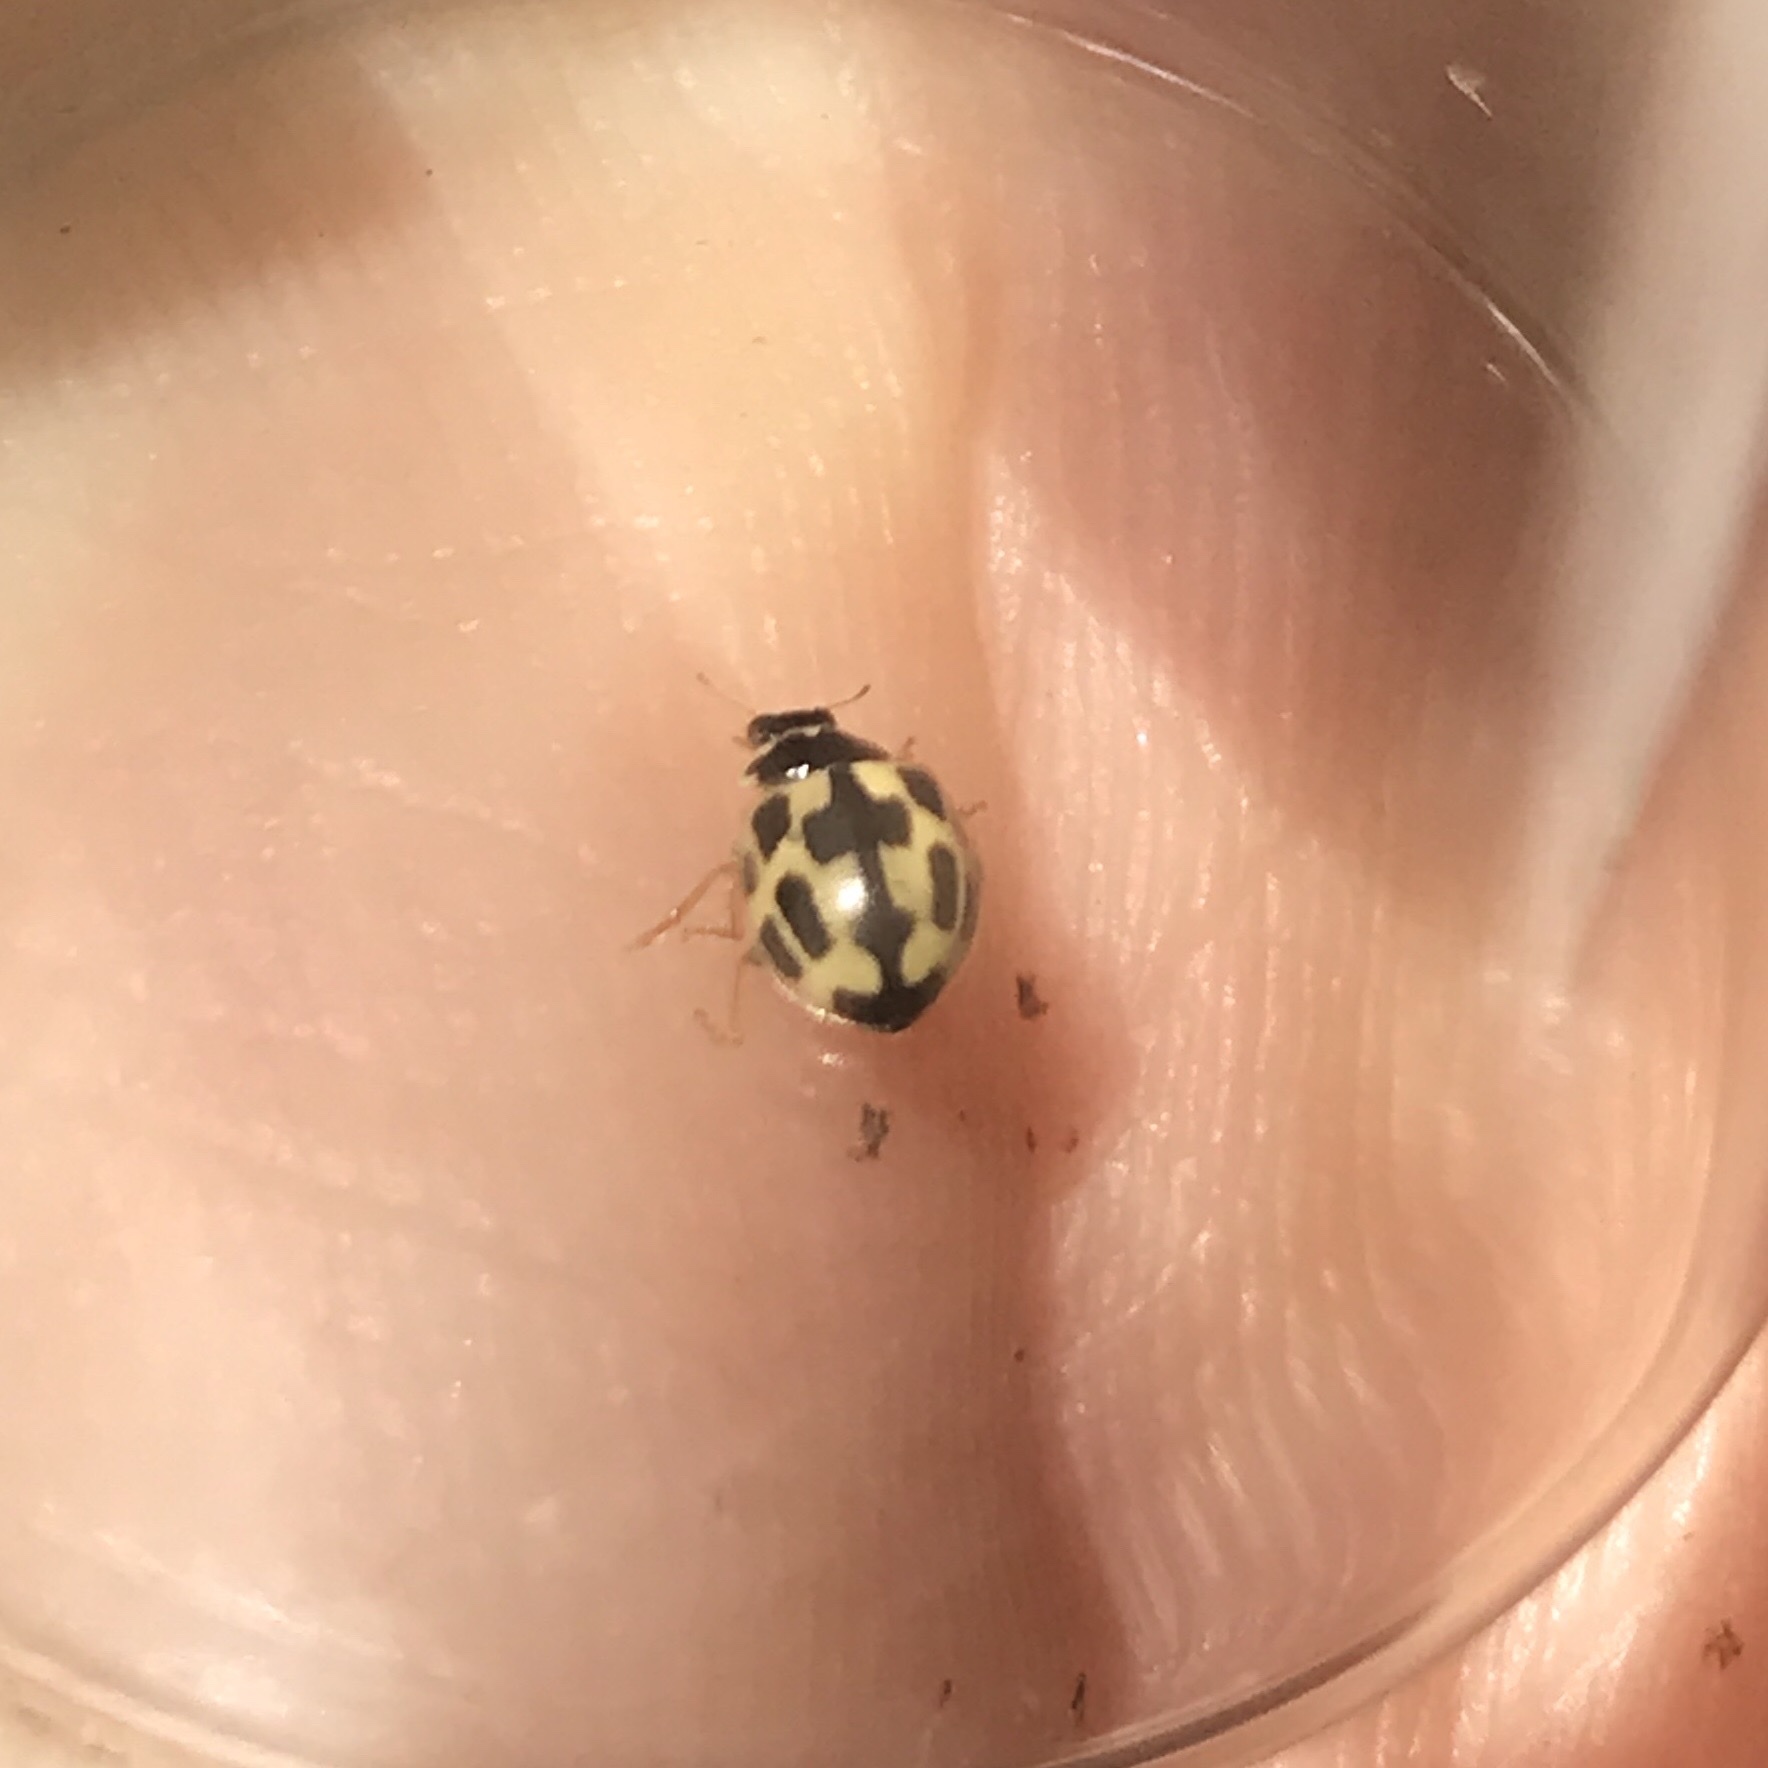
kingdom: Animalia
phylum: Arthropoda
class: Insecta
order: Coleoptera
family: Coccinellidae
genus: Propylaea
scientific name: Propylaea quatuordecimpunctata
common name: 14-spotted ladybird beetle
